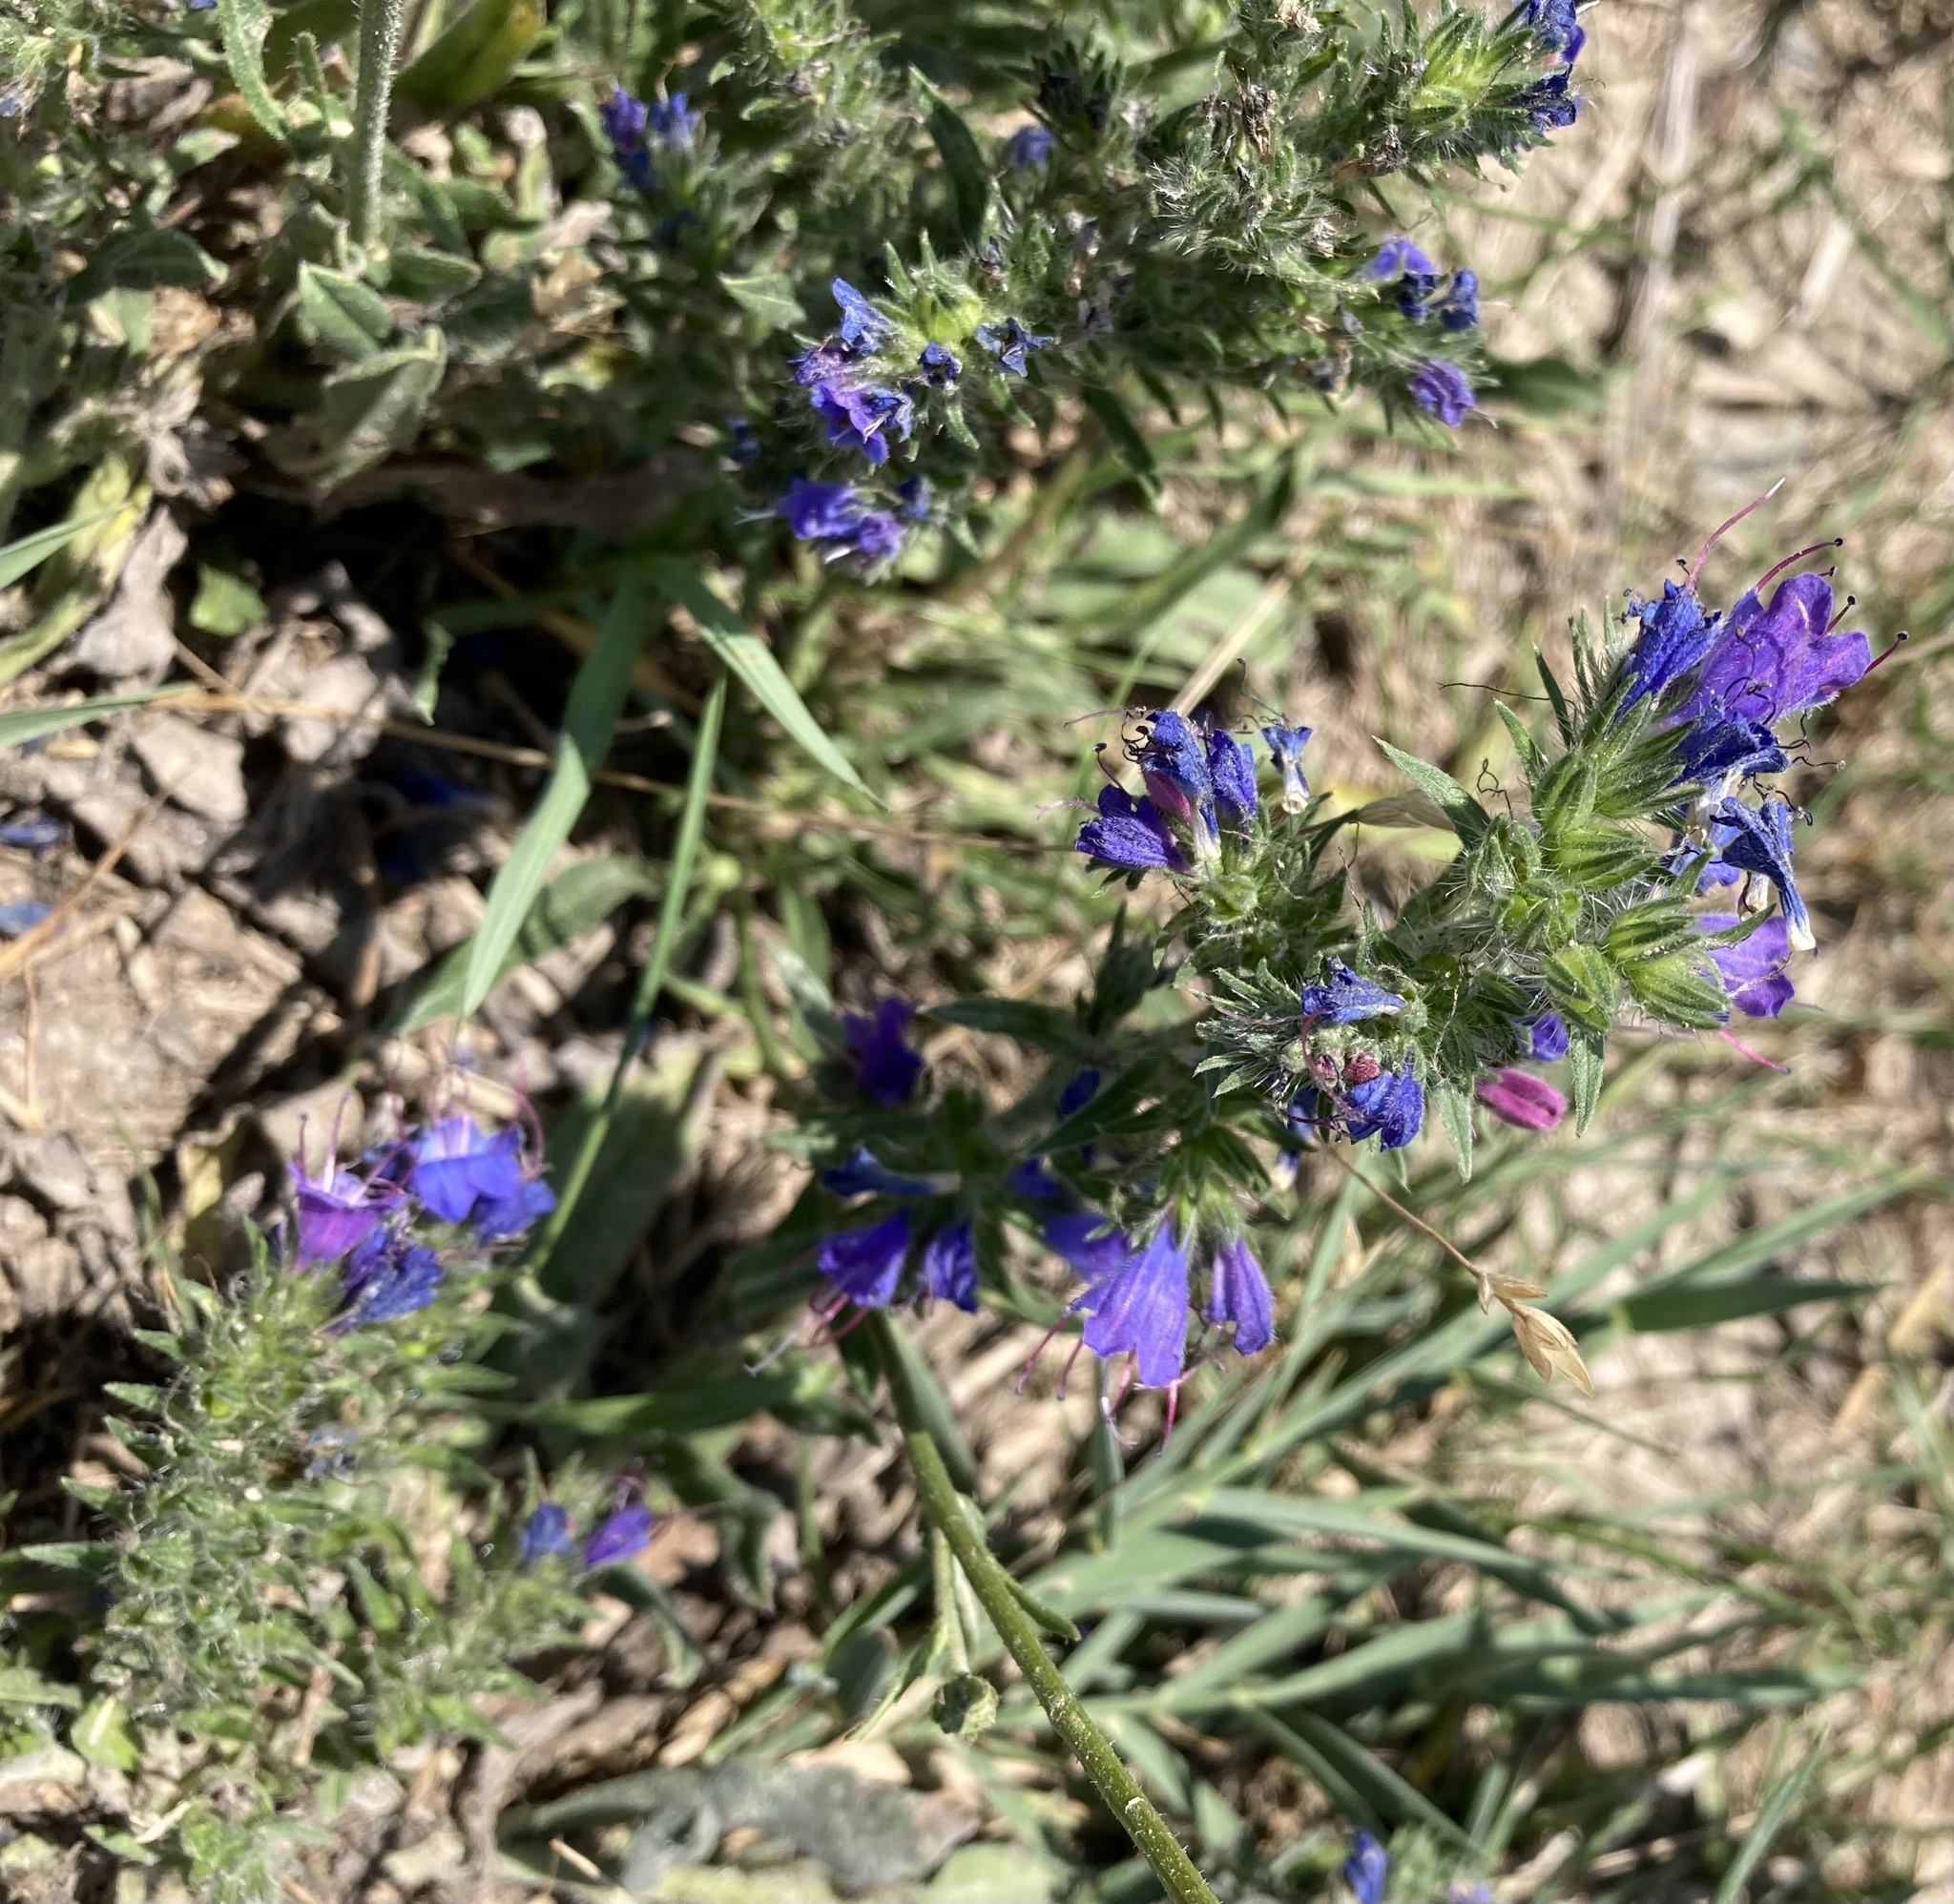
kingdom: Plantae
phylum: Tracheophyta
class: Magnoliopsida
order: Boraginales
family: Boraginaceae
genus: Echium
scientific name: Echium vulgare
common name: Common viper's bugloss
